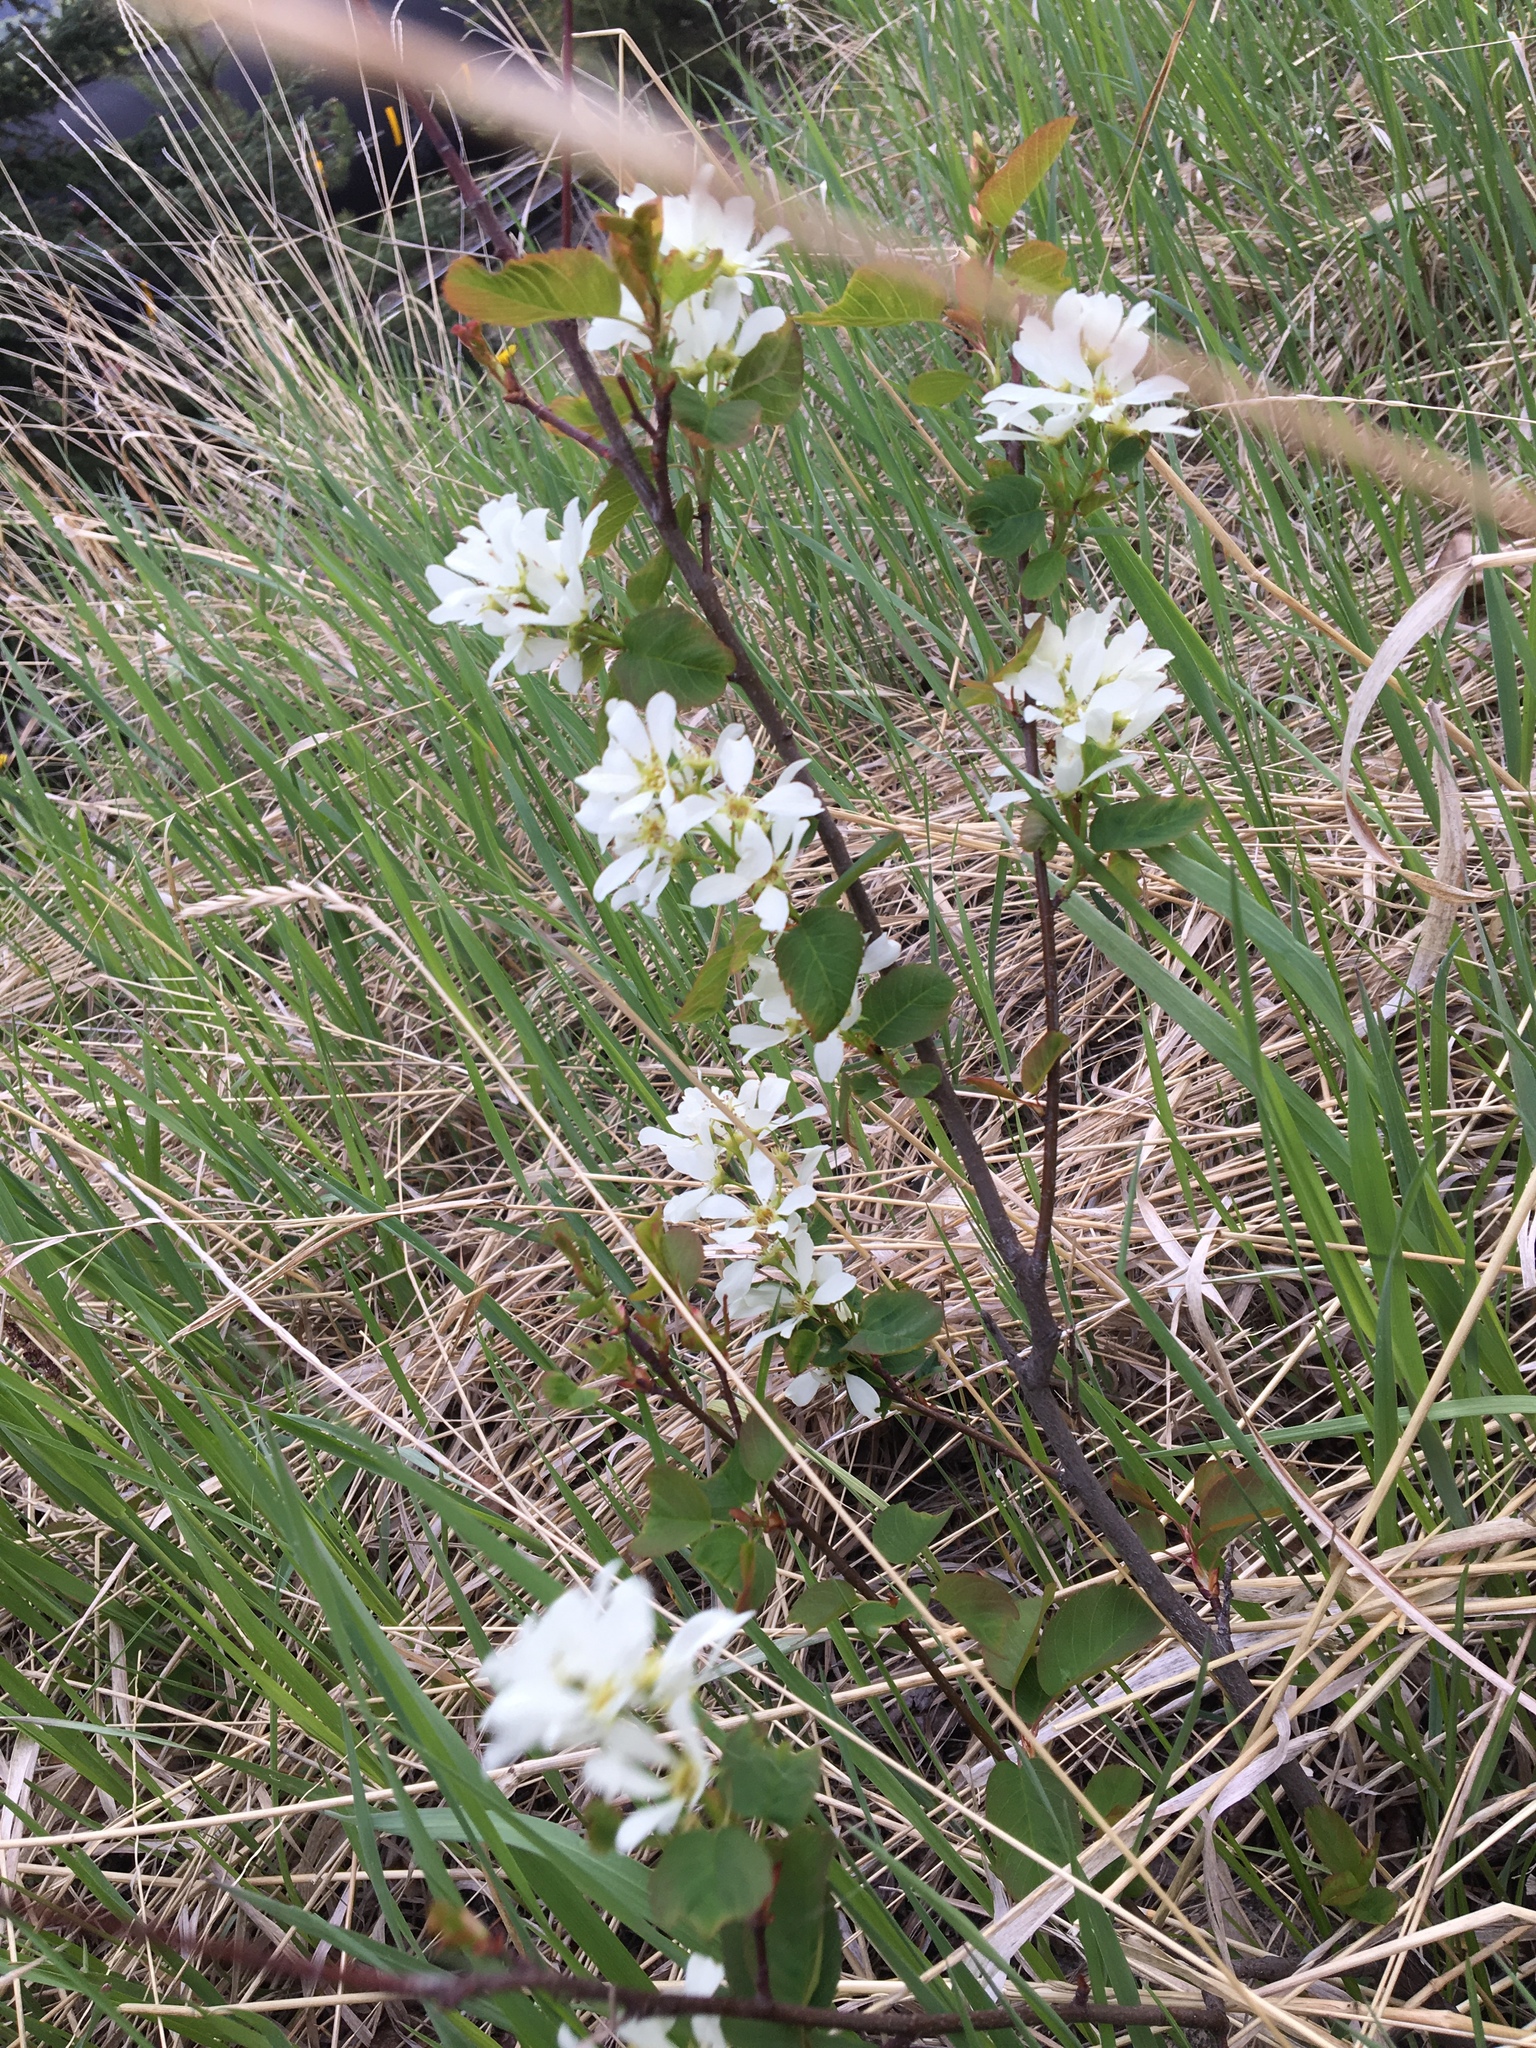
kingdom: Plantae
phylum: Tracheophyta
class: Magnoliopsida
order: Rosales
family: Rosaceae
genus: Amelanchier
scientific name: Amelanchier alnifolia
